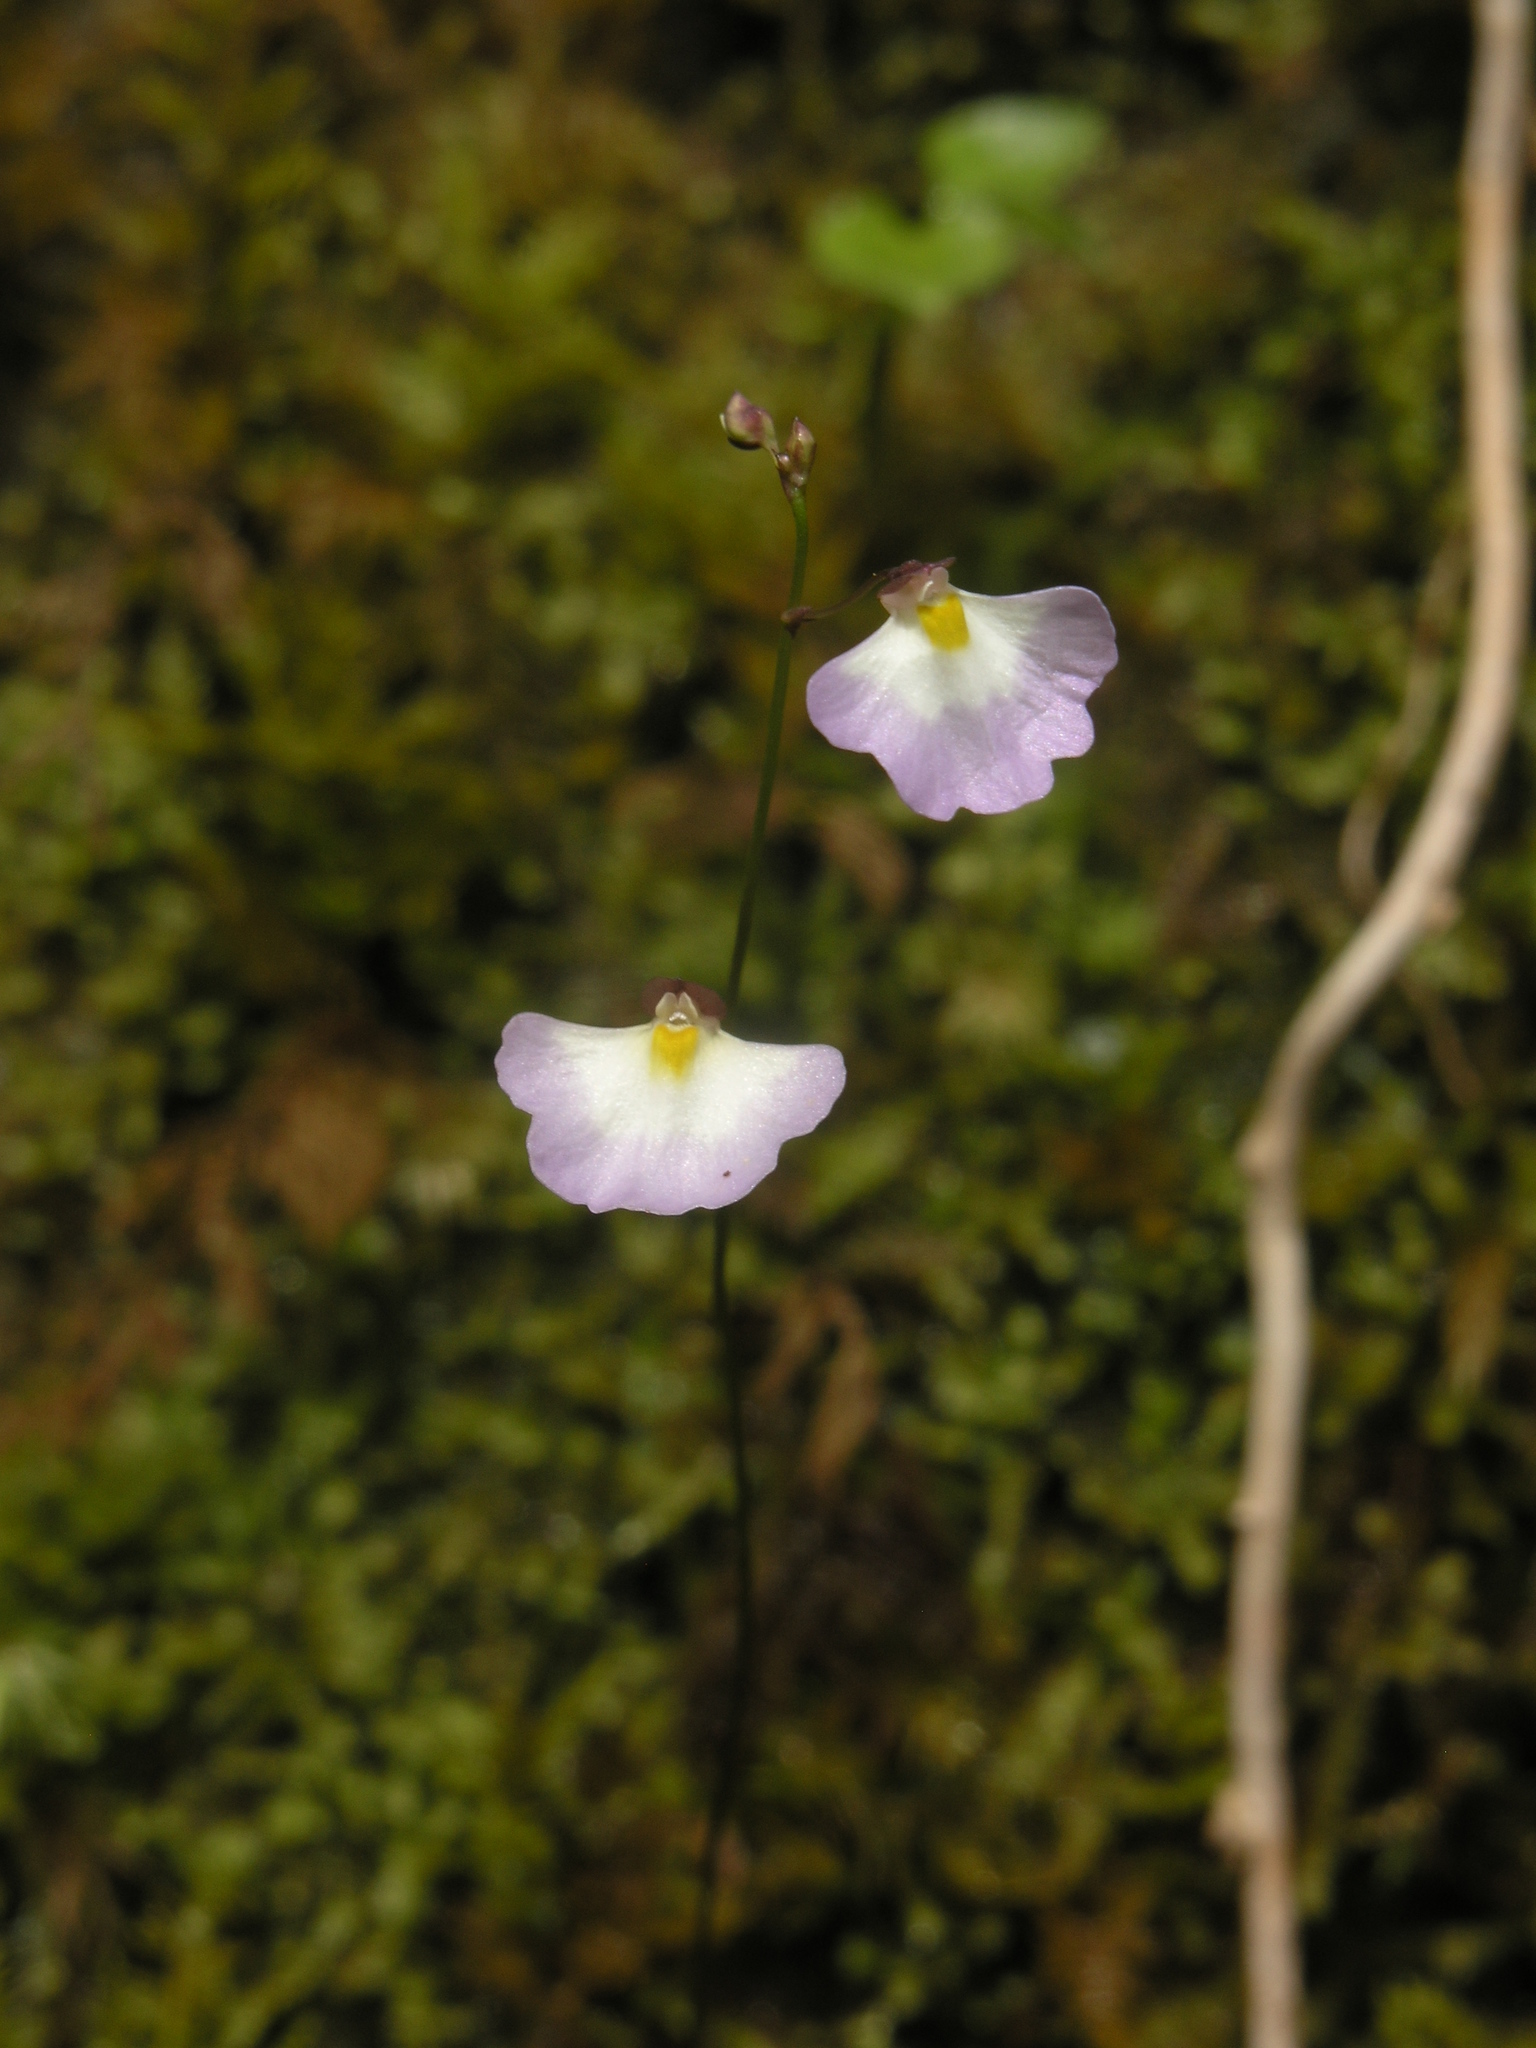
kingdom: Plantae
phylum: Tracheophyta
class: Magnoliopsida
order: Lamiales
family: Lentibulariaceae
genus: Utricularia
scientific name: Utricularia striatula
